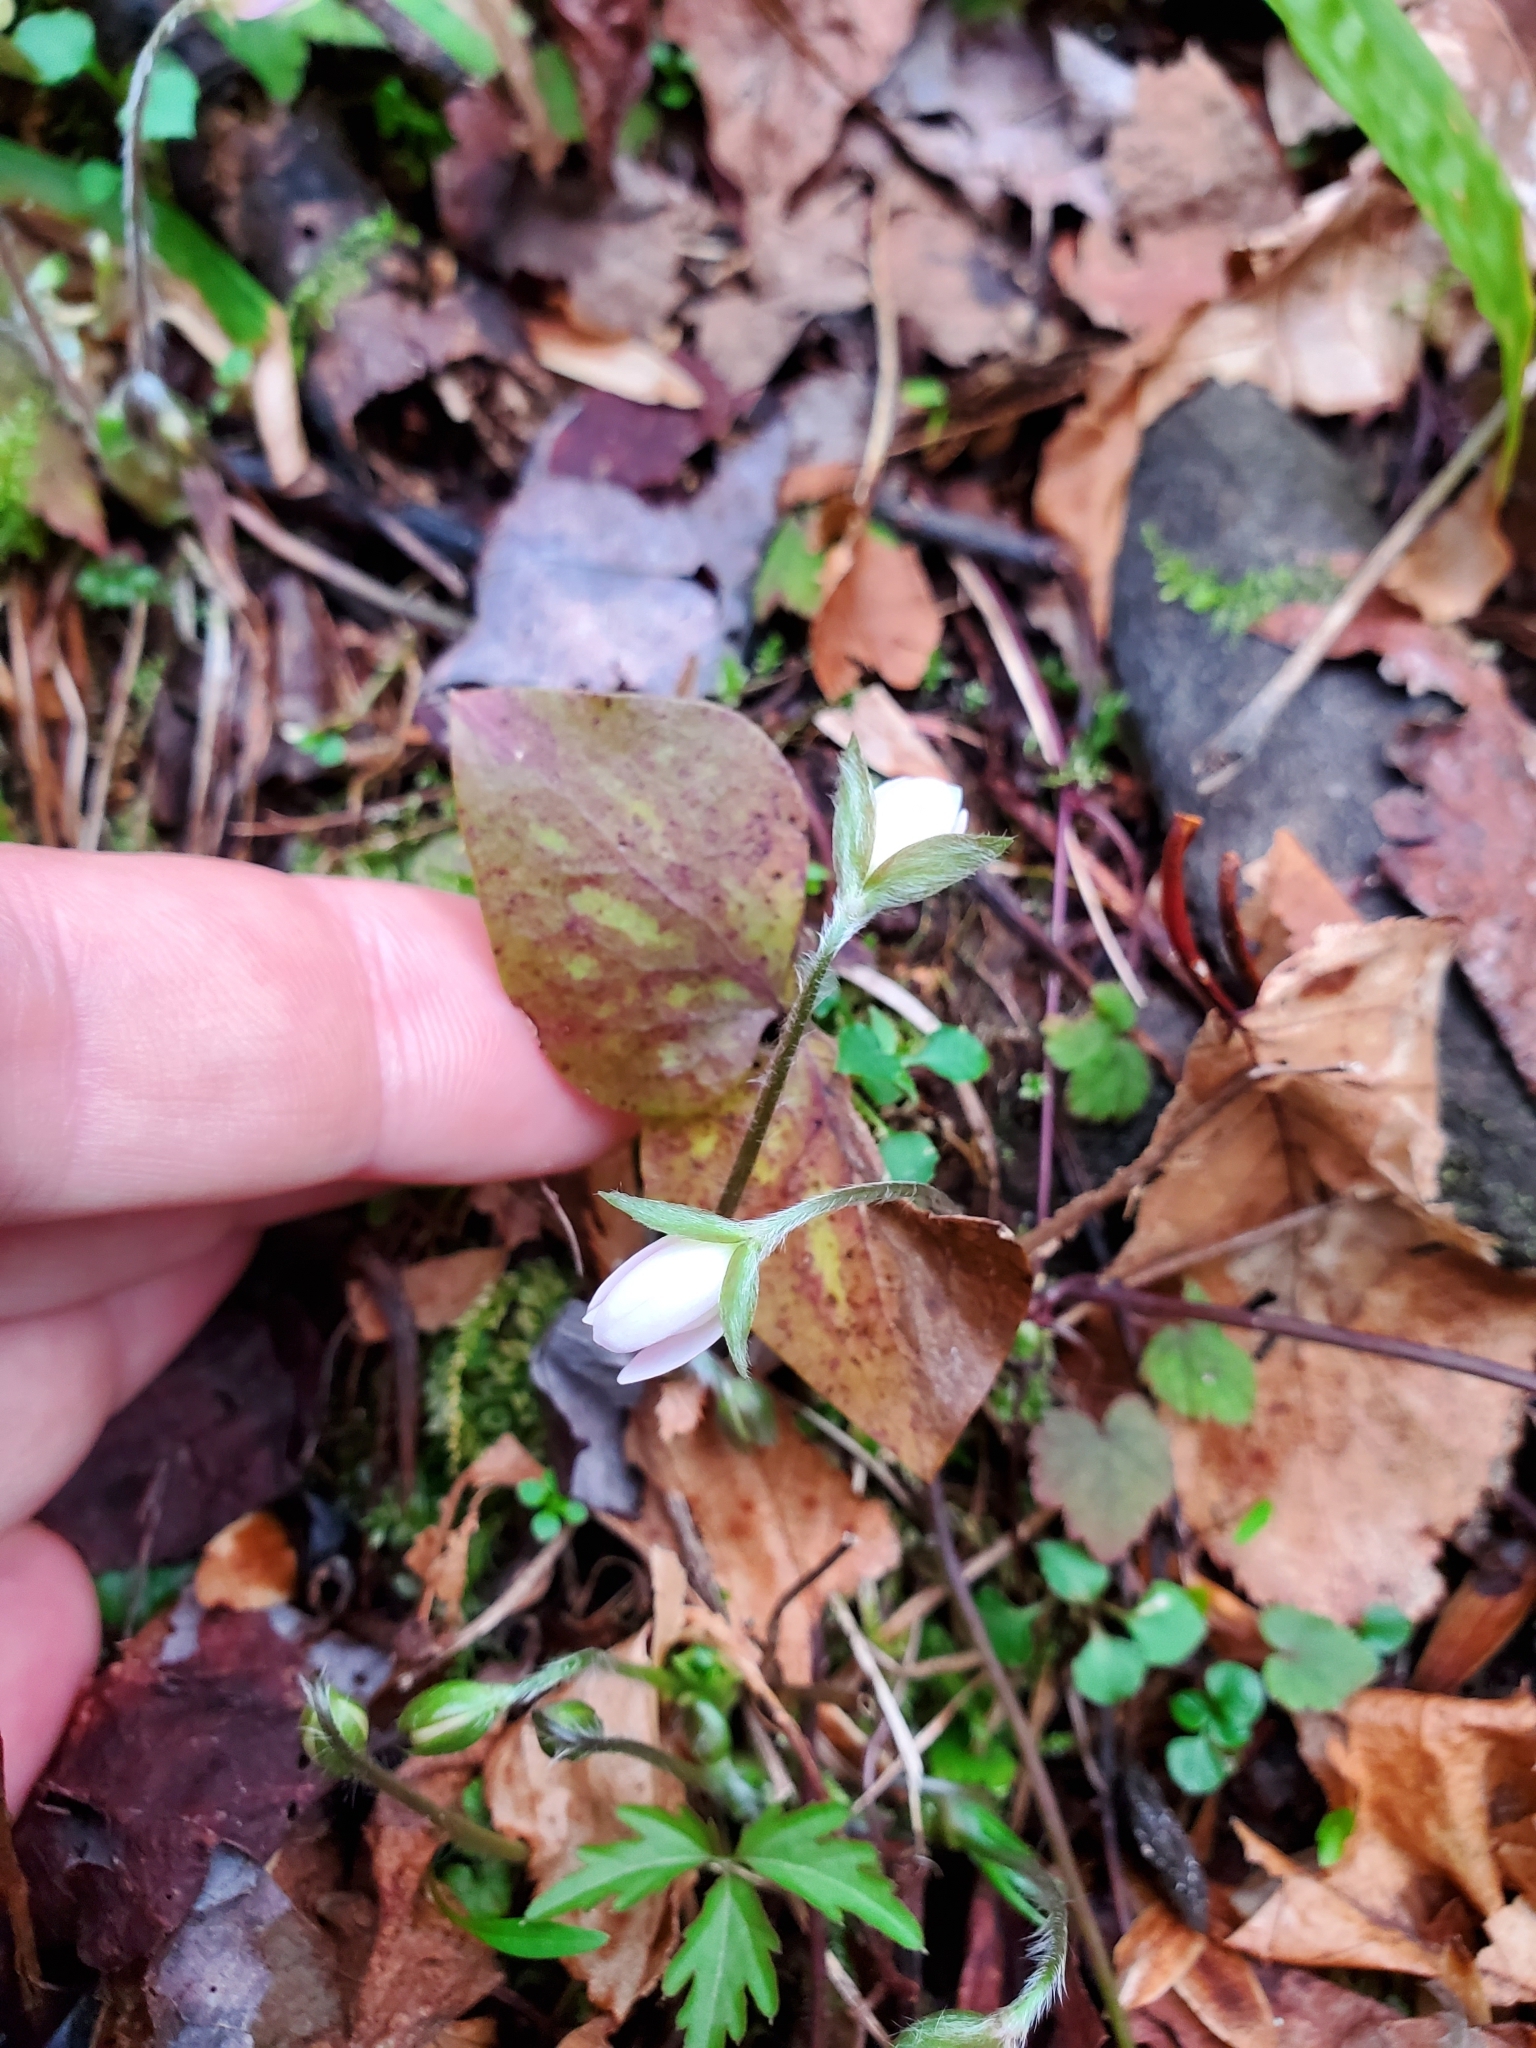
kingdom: Plantae
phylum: Tracheophyta
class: Magnoliopsida
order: Ranunculales
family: Ranunculaceae
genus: Hepatica
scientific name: Hepatica acutiloba
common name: Sharp-lobed hepatica
